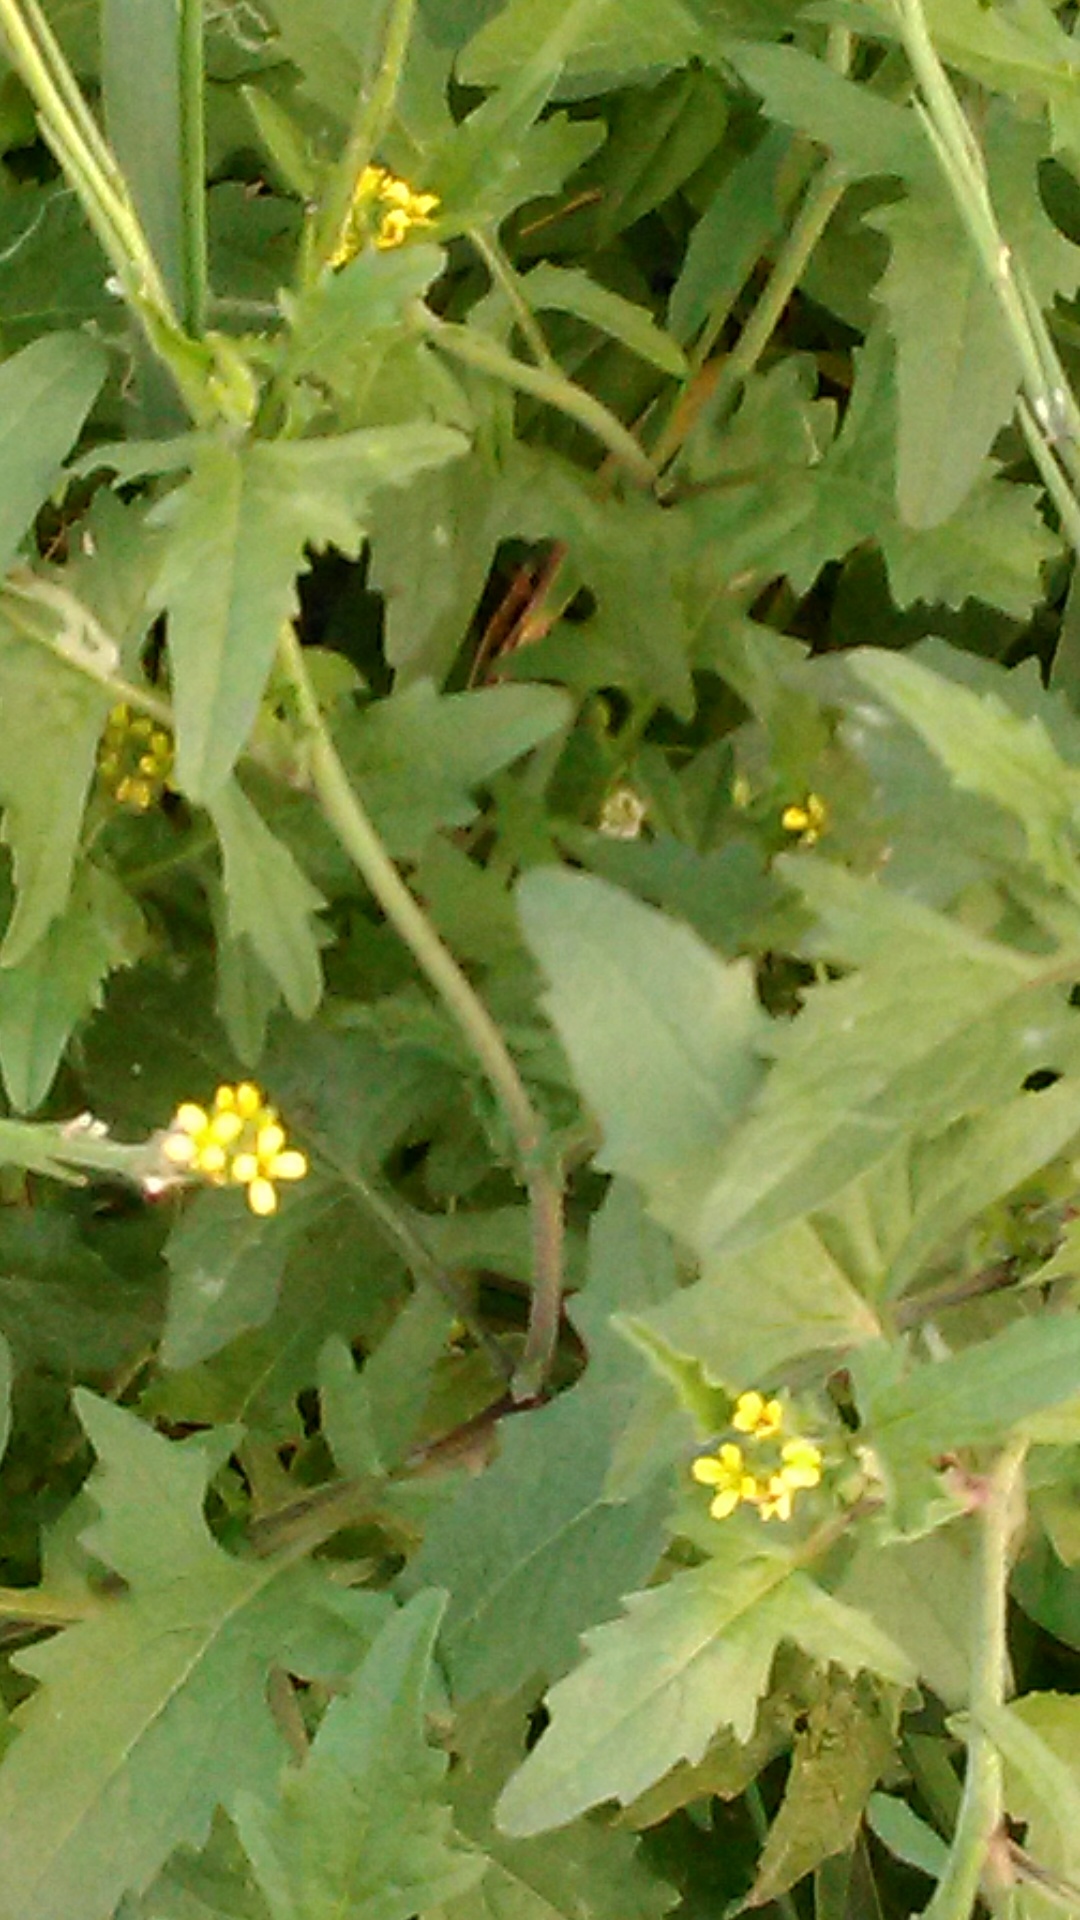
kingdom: Plantae
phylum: Tracheophyta
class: Magnoliopsida
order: Brassicales
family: Brassicaceae
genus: Sisymbrium
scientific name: Sisymbrium officinale
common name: Hedge mustard
